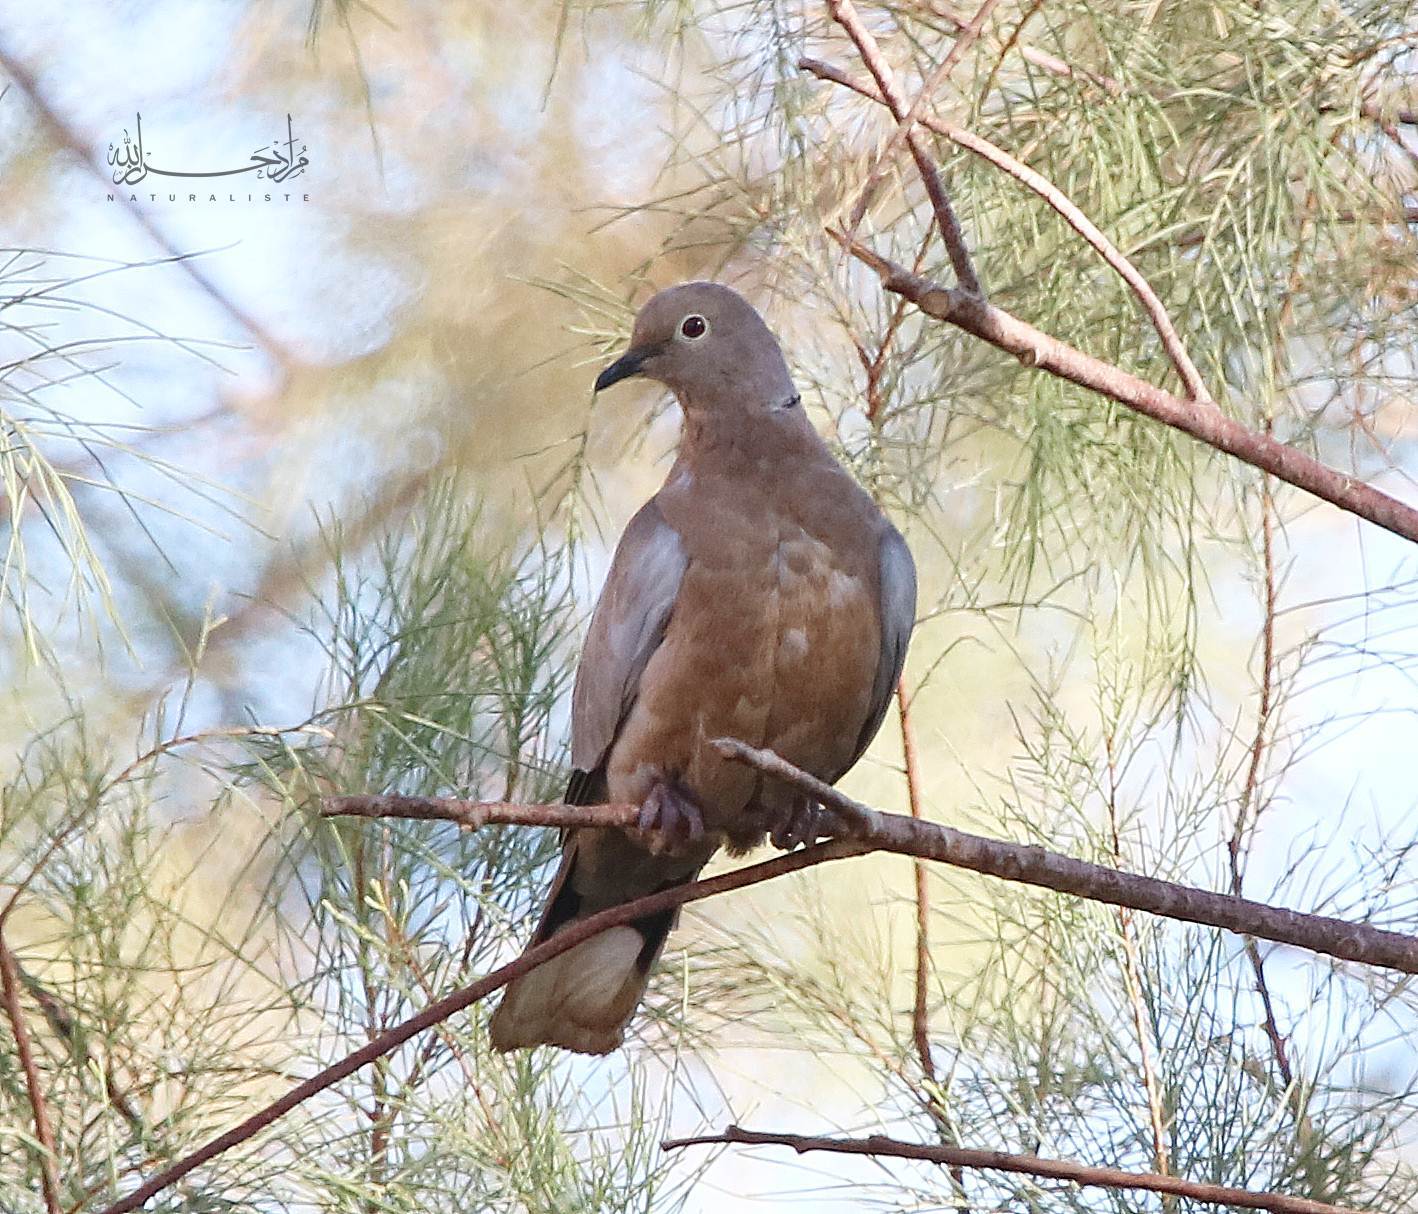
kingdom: Animalia
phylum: Chordata
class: Aves
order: Columbiformes
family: Columbidae
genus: Streptopelia
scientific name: Streptopelia decaocto
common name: Eurasian collared dove
